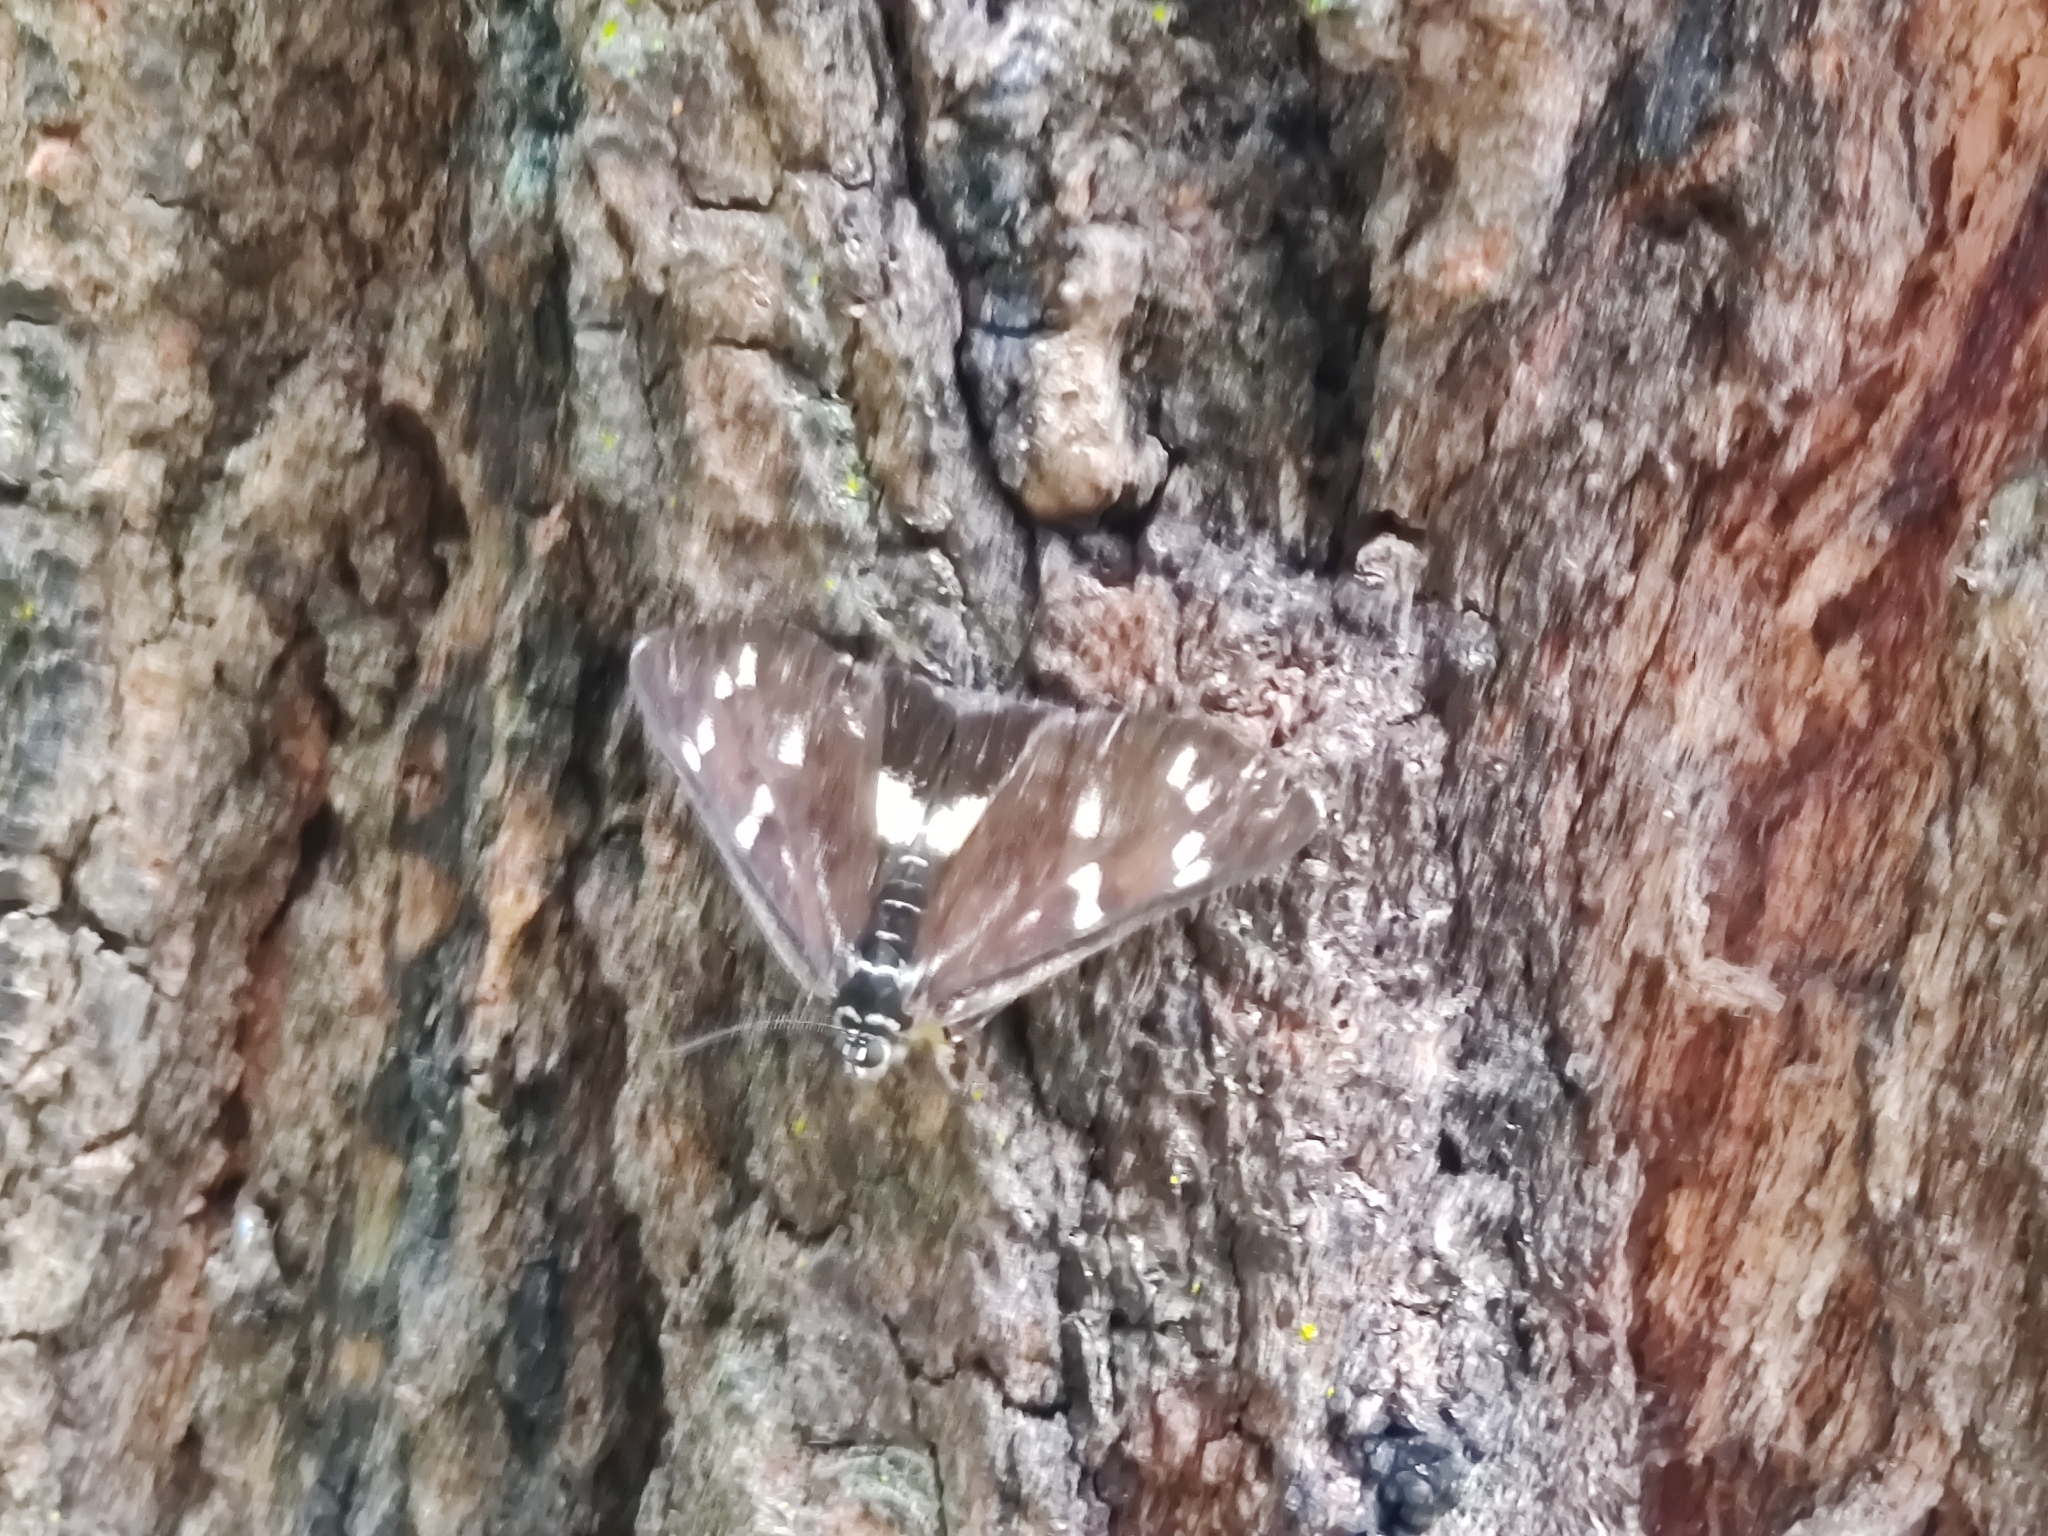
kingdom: Animalia
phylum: Arthropoda
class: Insecta
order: Lepidoptera
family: Noctuidae
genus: Cruria
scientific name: Cruria synopla
